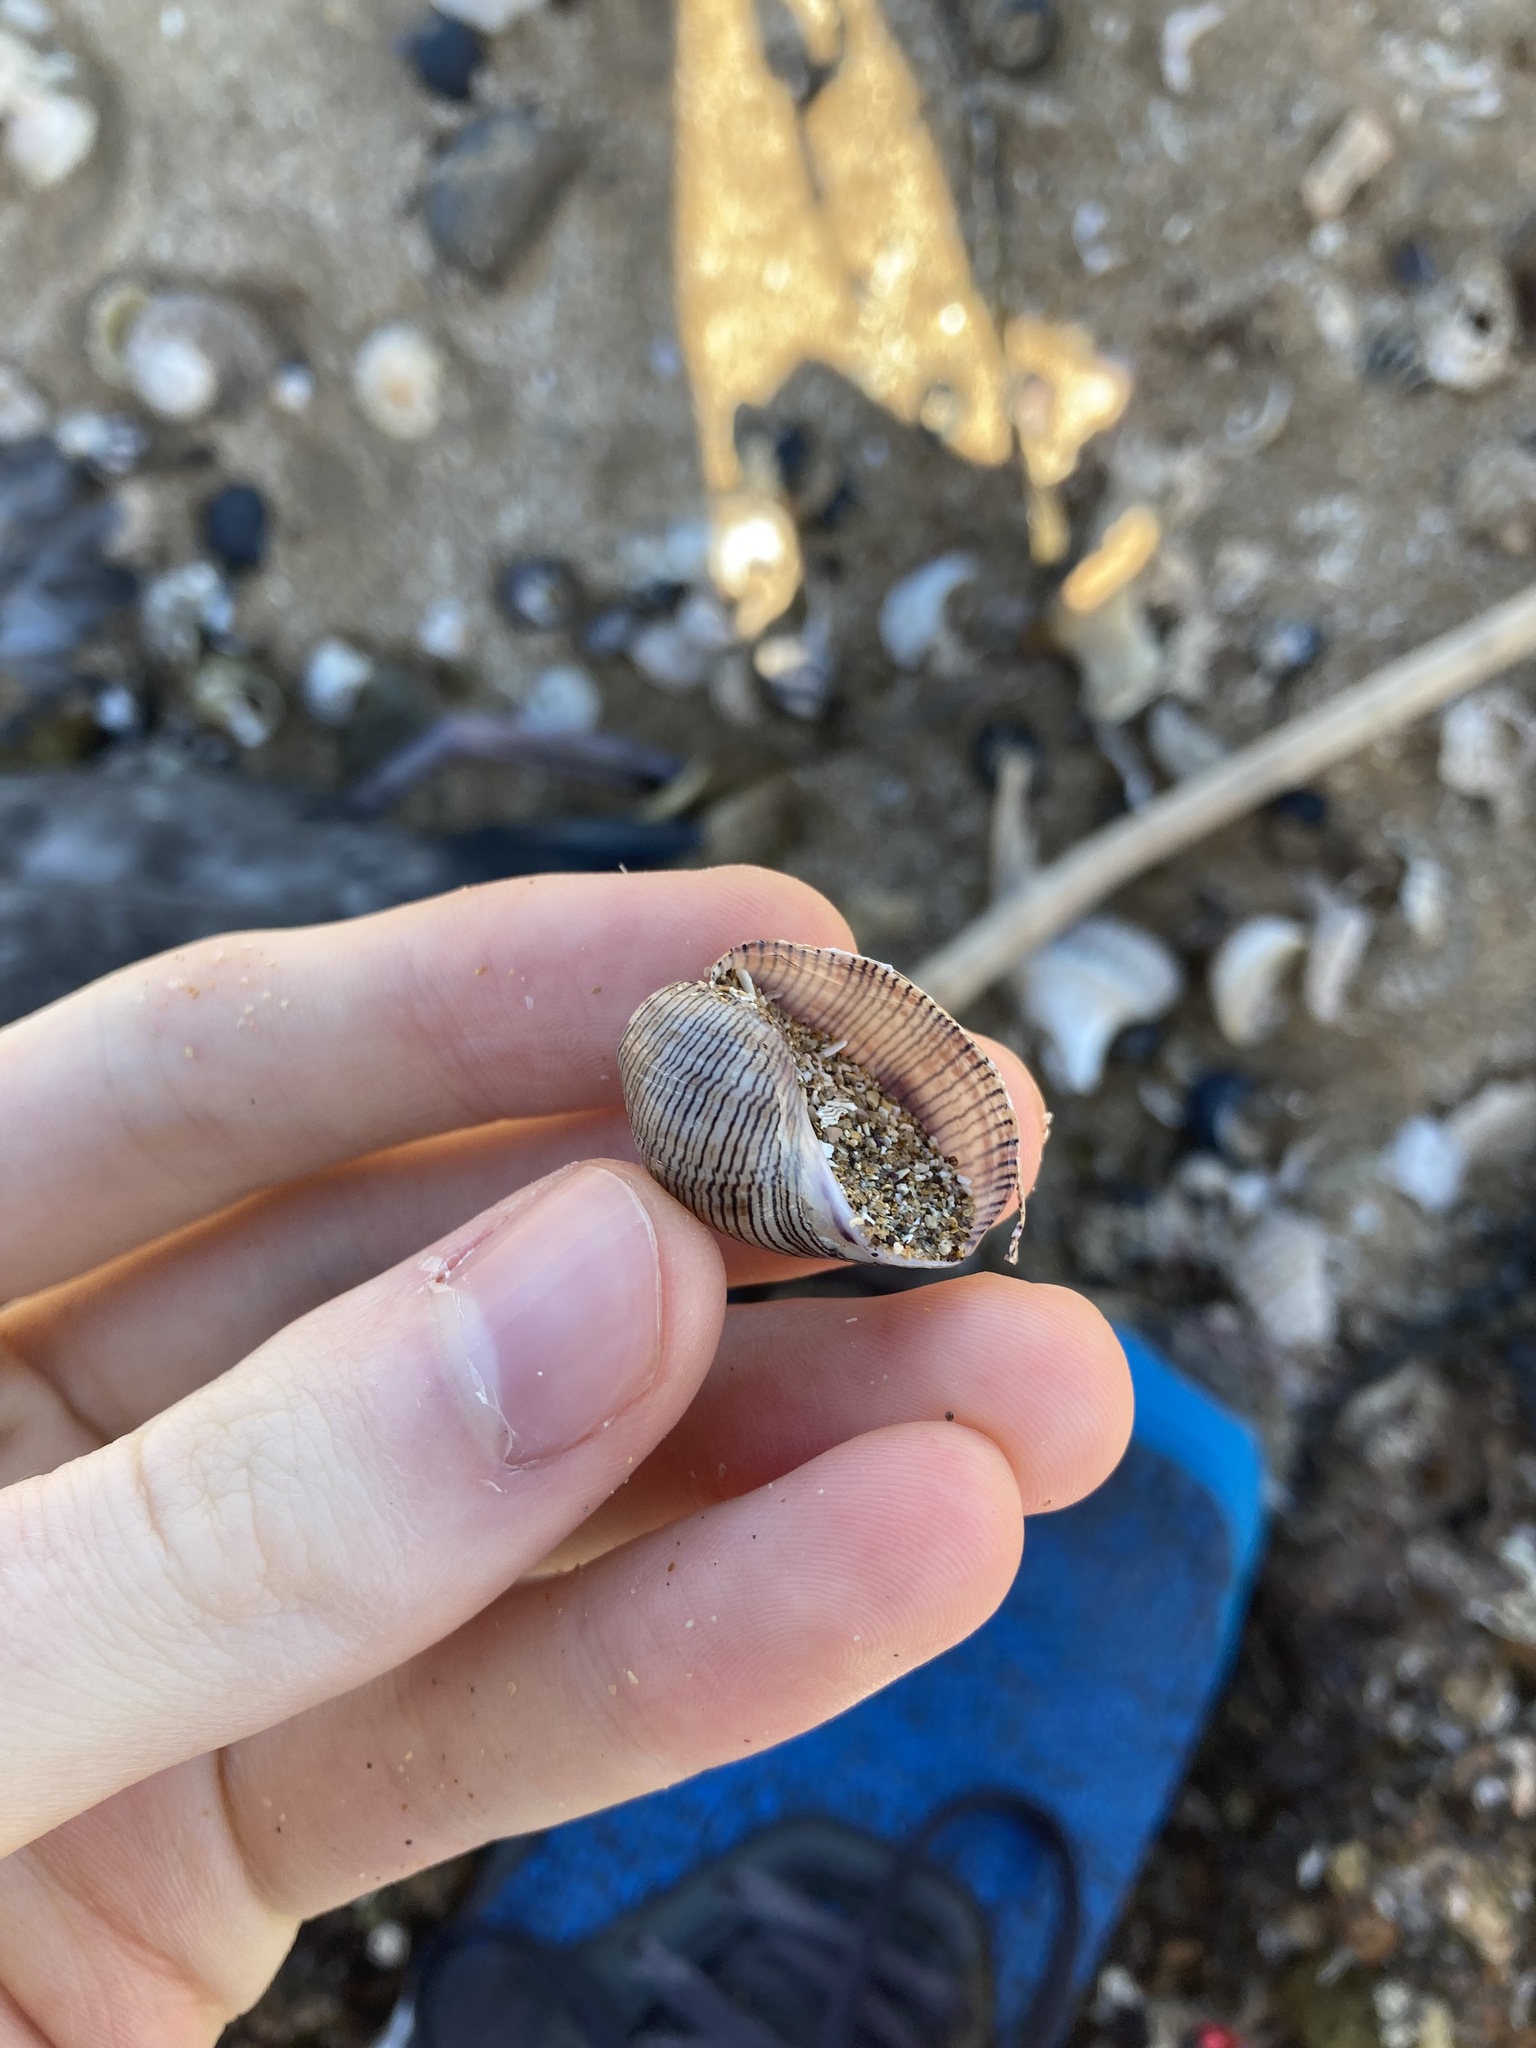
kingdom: Animalia
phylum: Mollusca
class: Gastropoda
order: Cephalaspidea
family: Aplustridae
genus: Hydatina
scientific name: Hydatina physis
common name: Brown-line paperbubble
